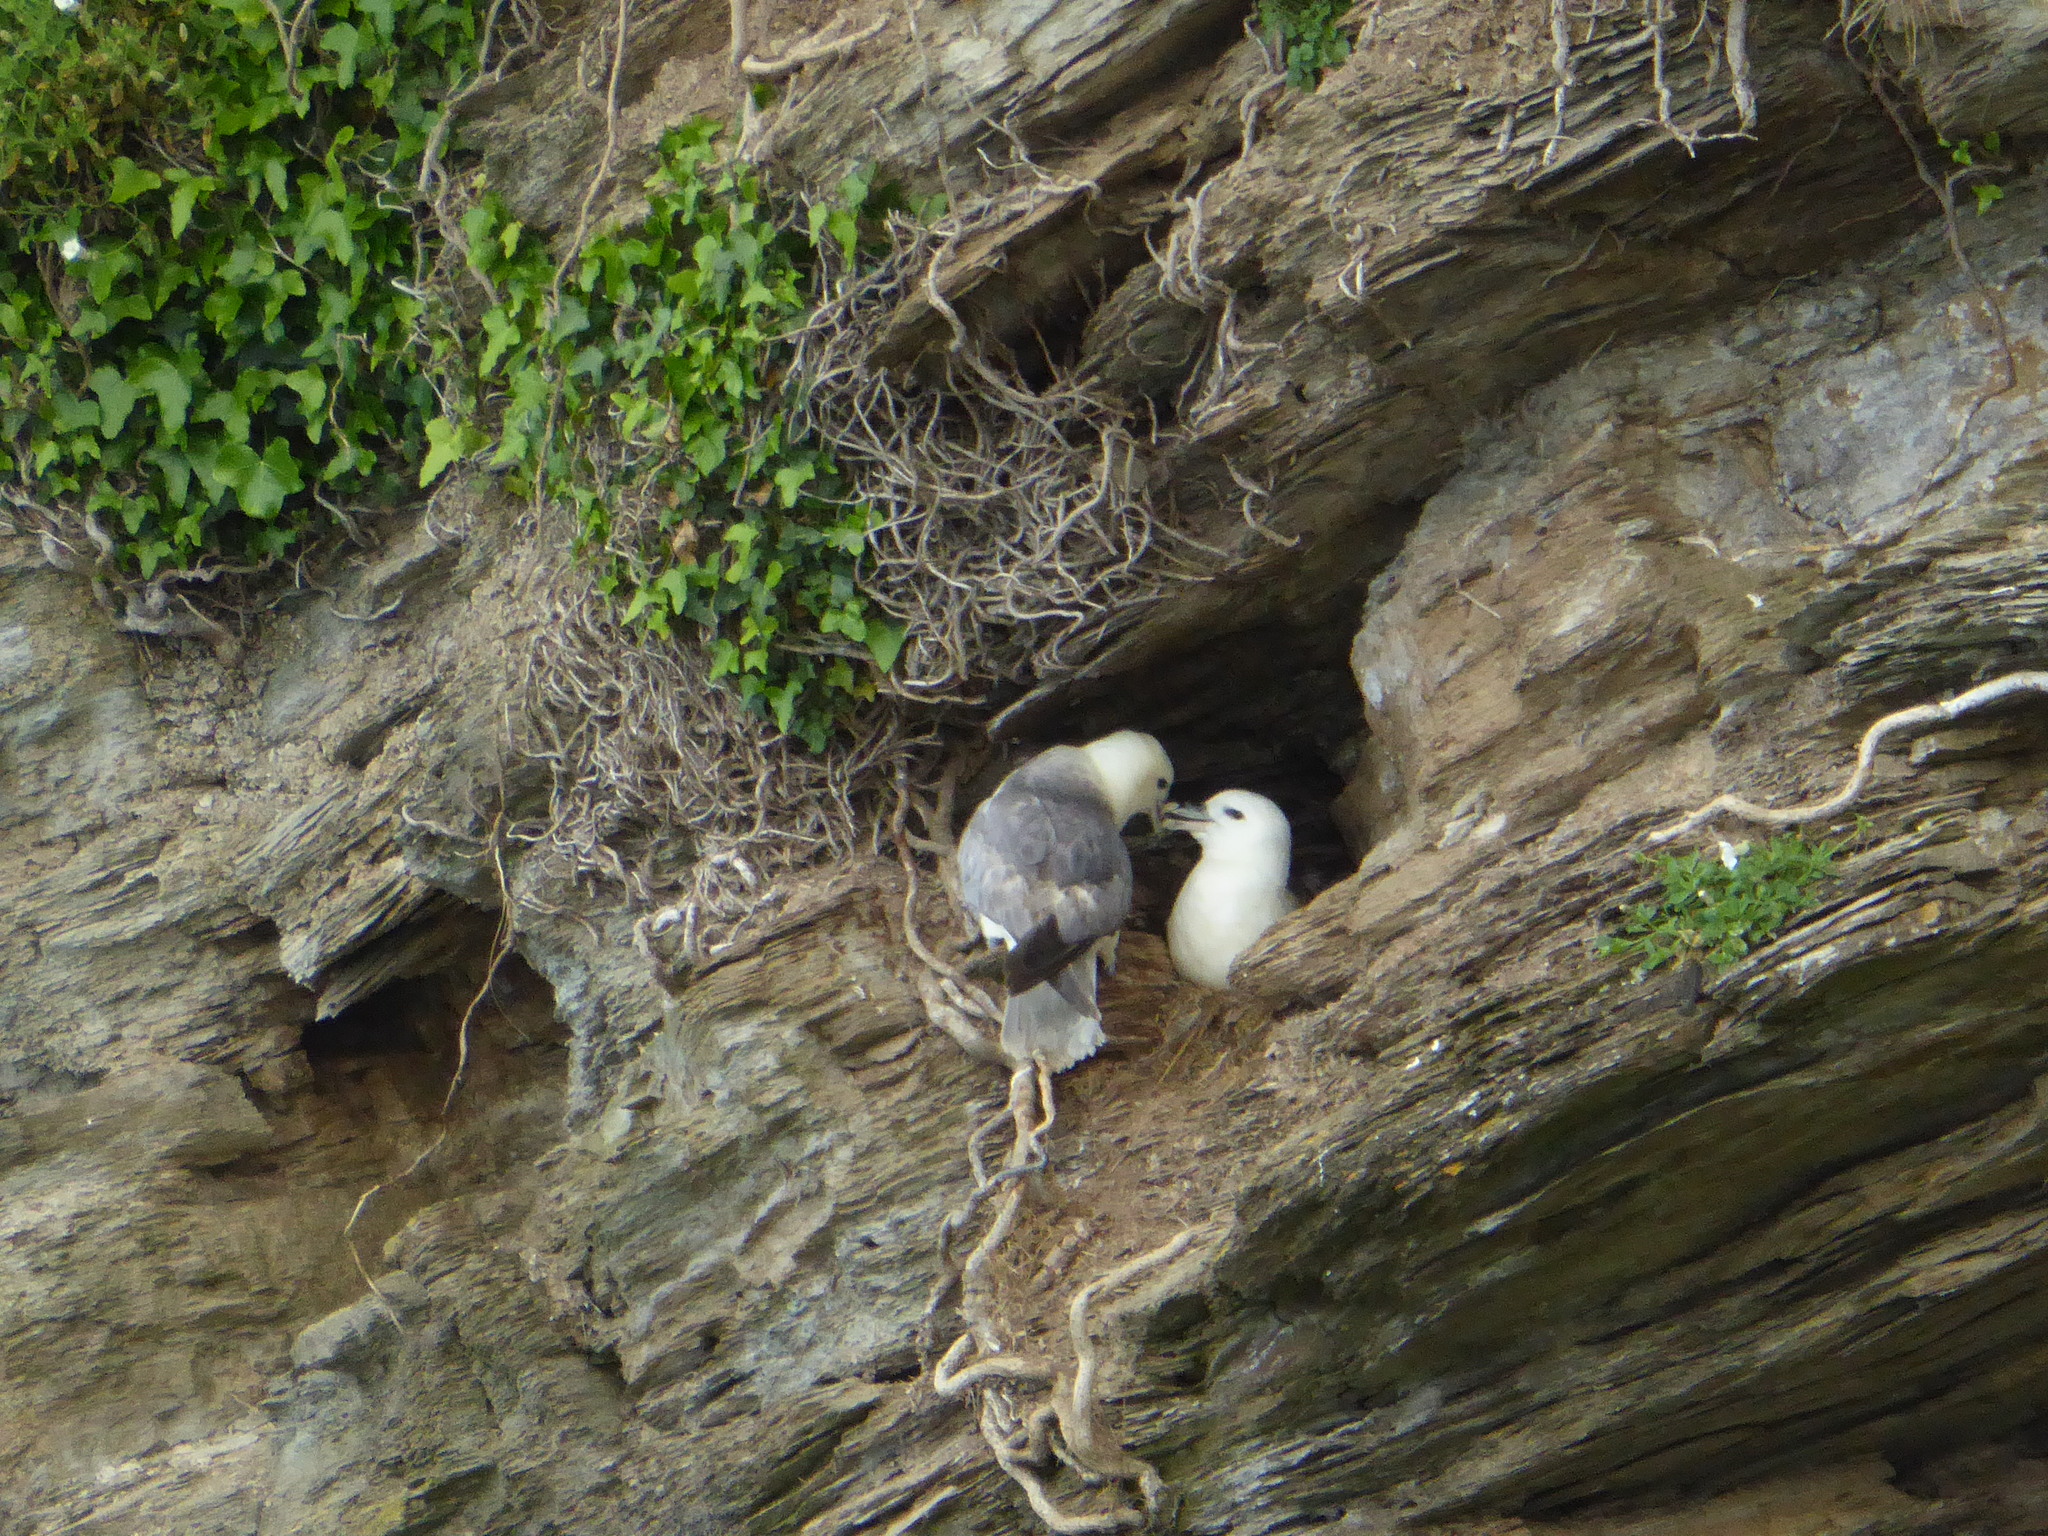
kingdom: Animalia
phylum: Chordata
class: Aves
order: Procellariiformes
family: Procellariidae
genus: Fulmarus
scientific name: Fulmarus glacialis
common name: Northern fulmar
